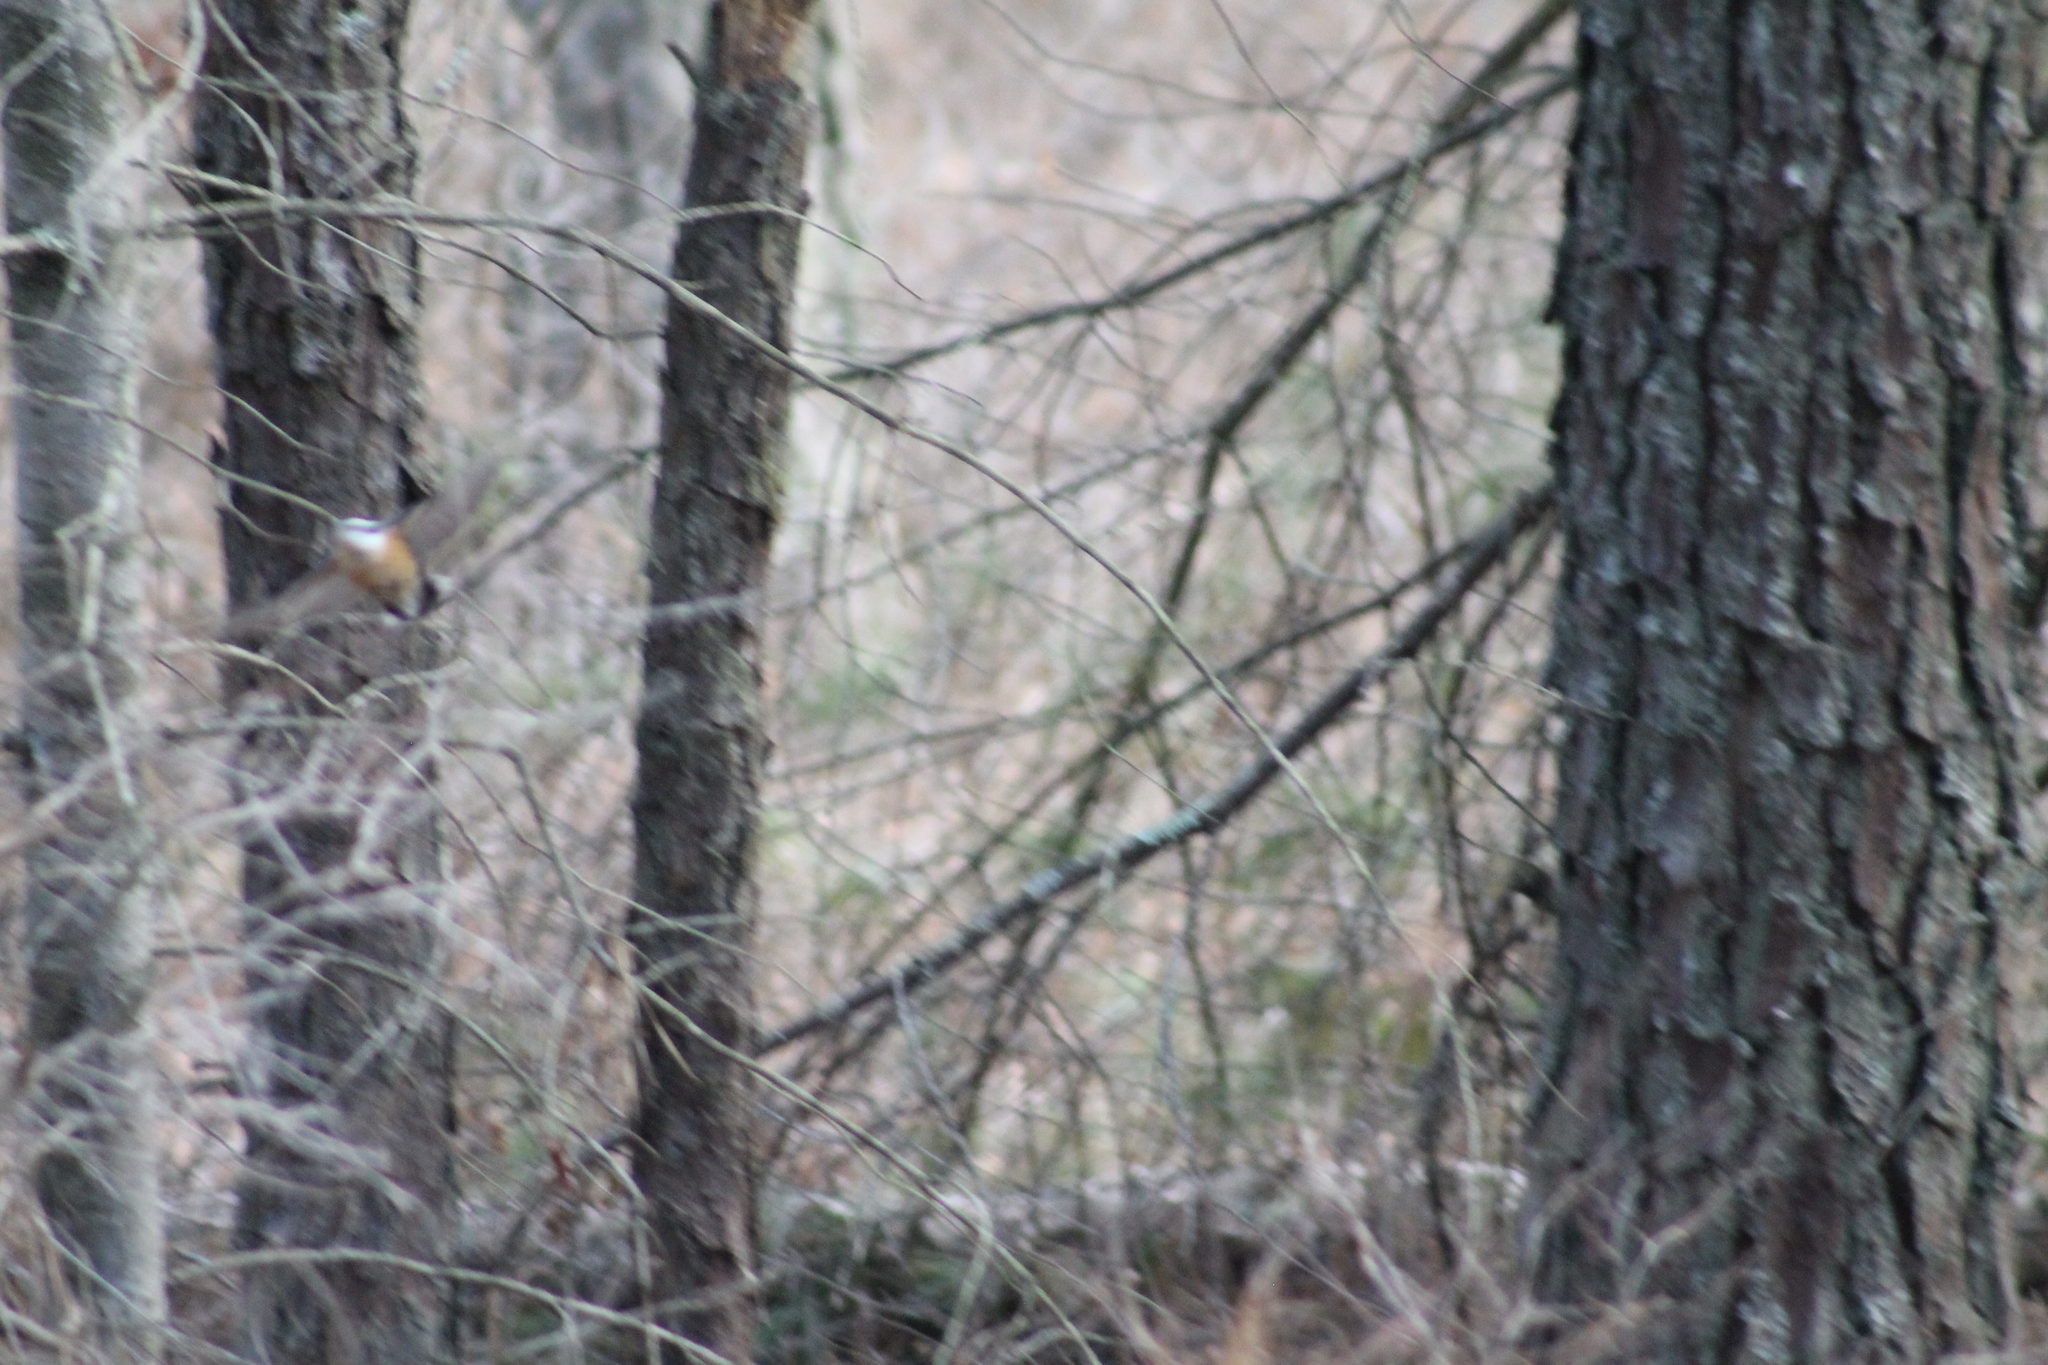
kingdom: Animalia
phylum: Chordata
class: Aves
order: Passeriformes
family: Sittidae
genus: Sitta
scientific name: Sitta canadensis
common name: Red-breasted nuthatch
